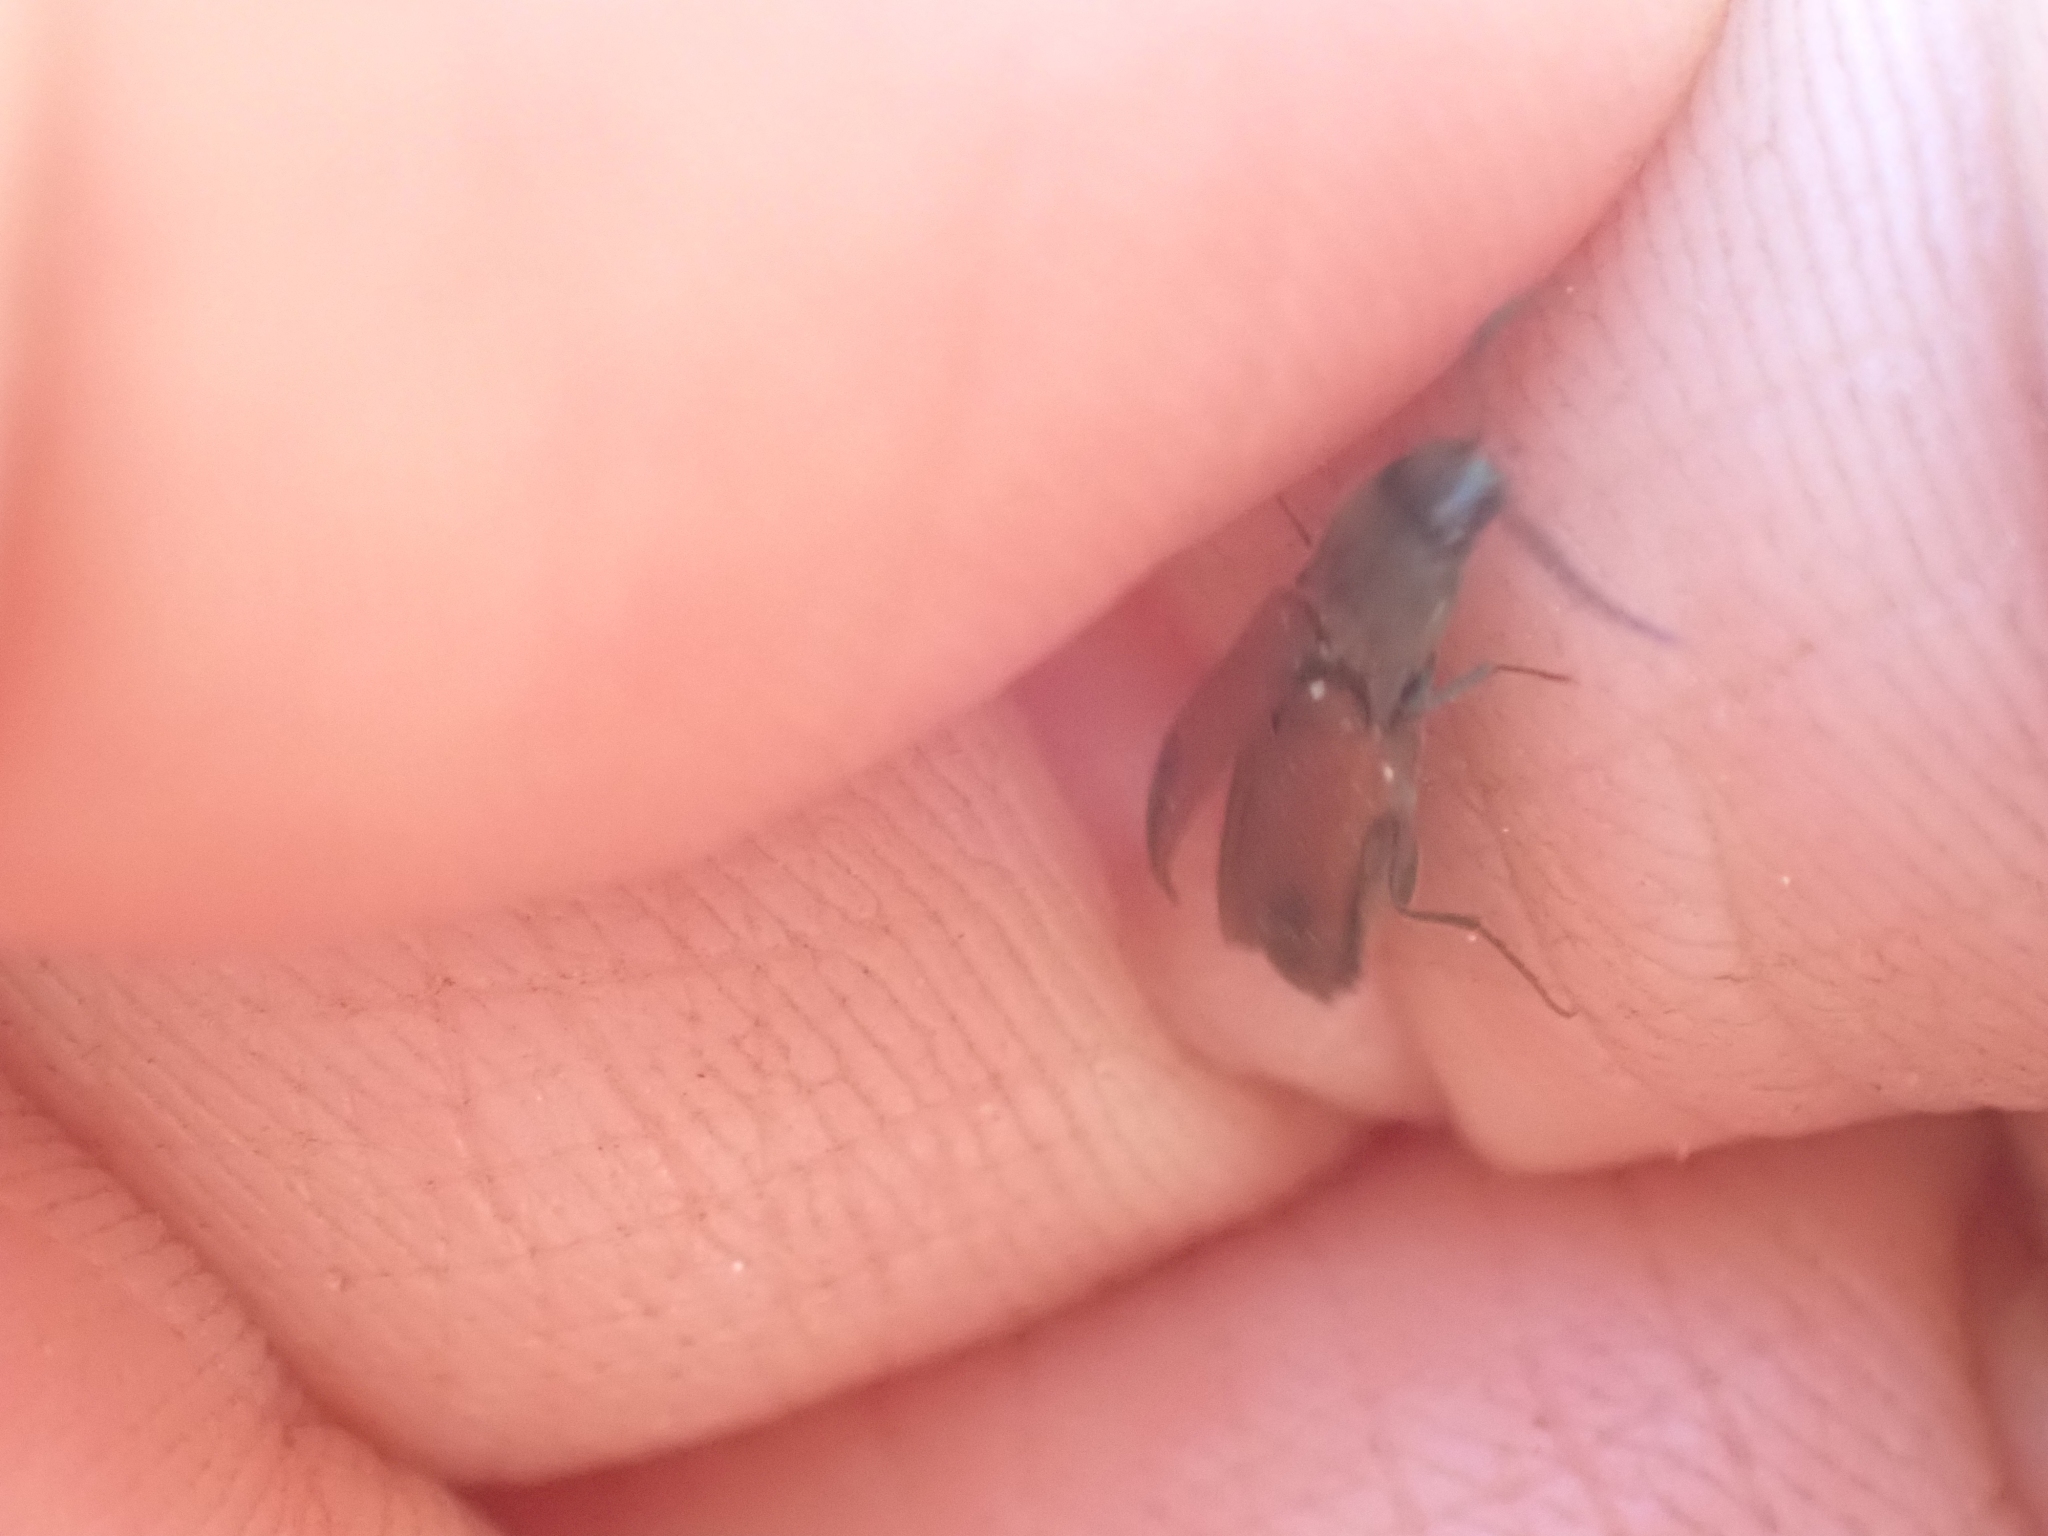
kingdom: Animalia
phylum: Arthropoda
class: Insecta
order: Coleoptera
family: Elateridae
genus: Ampedus
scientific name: Ampedus occidentalis
